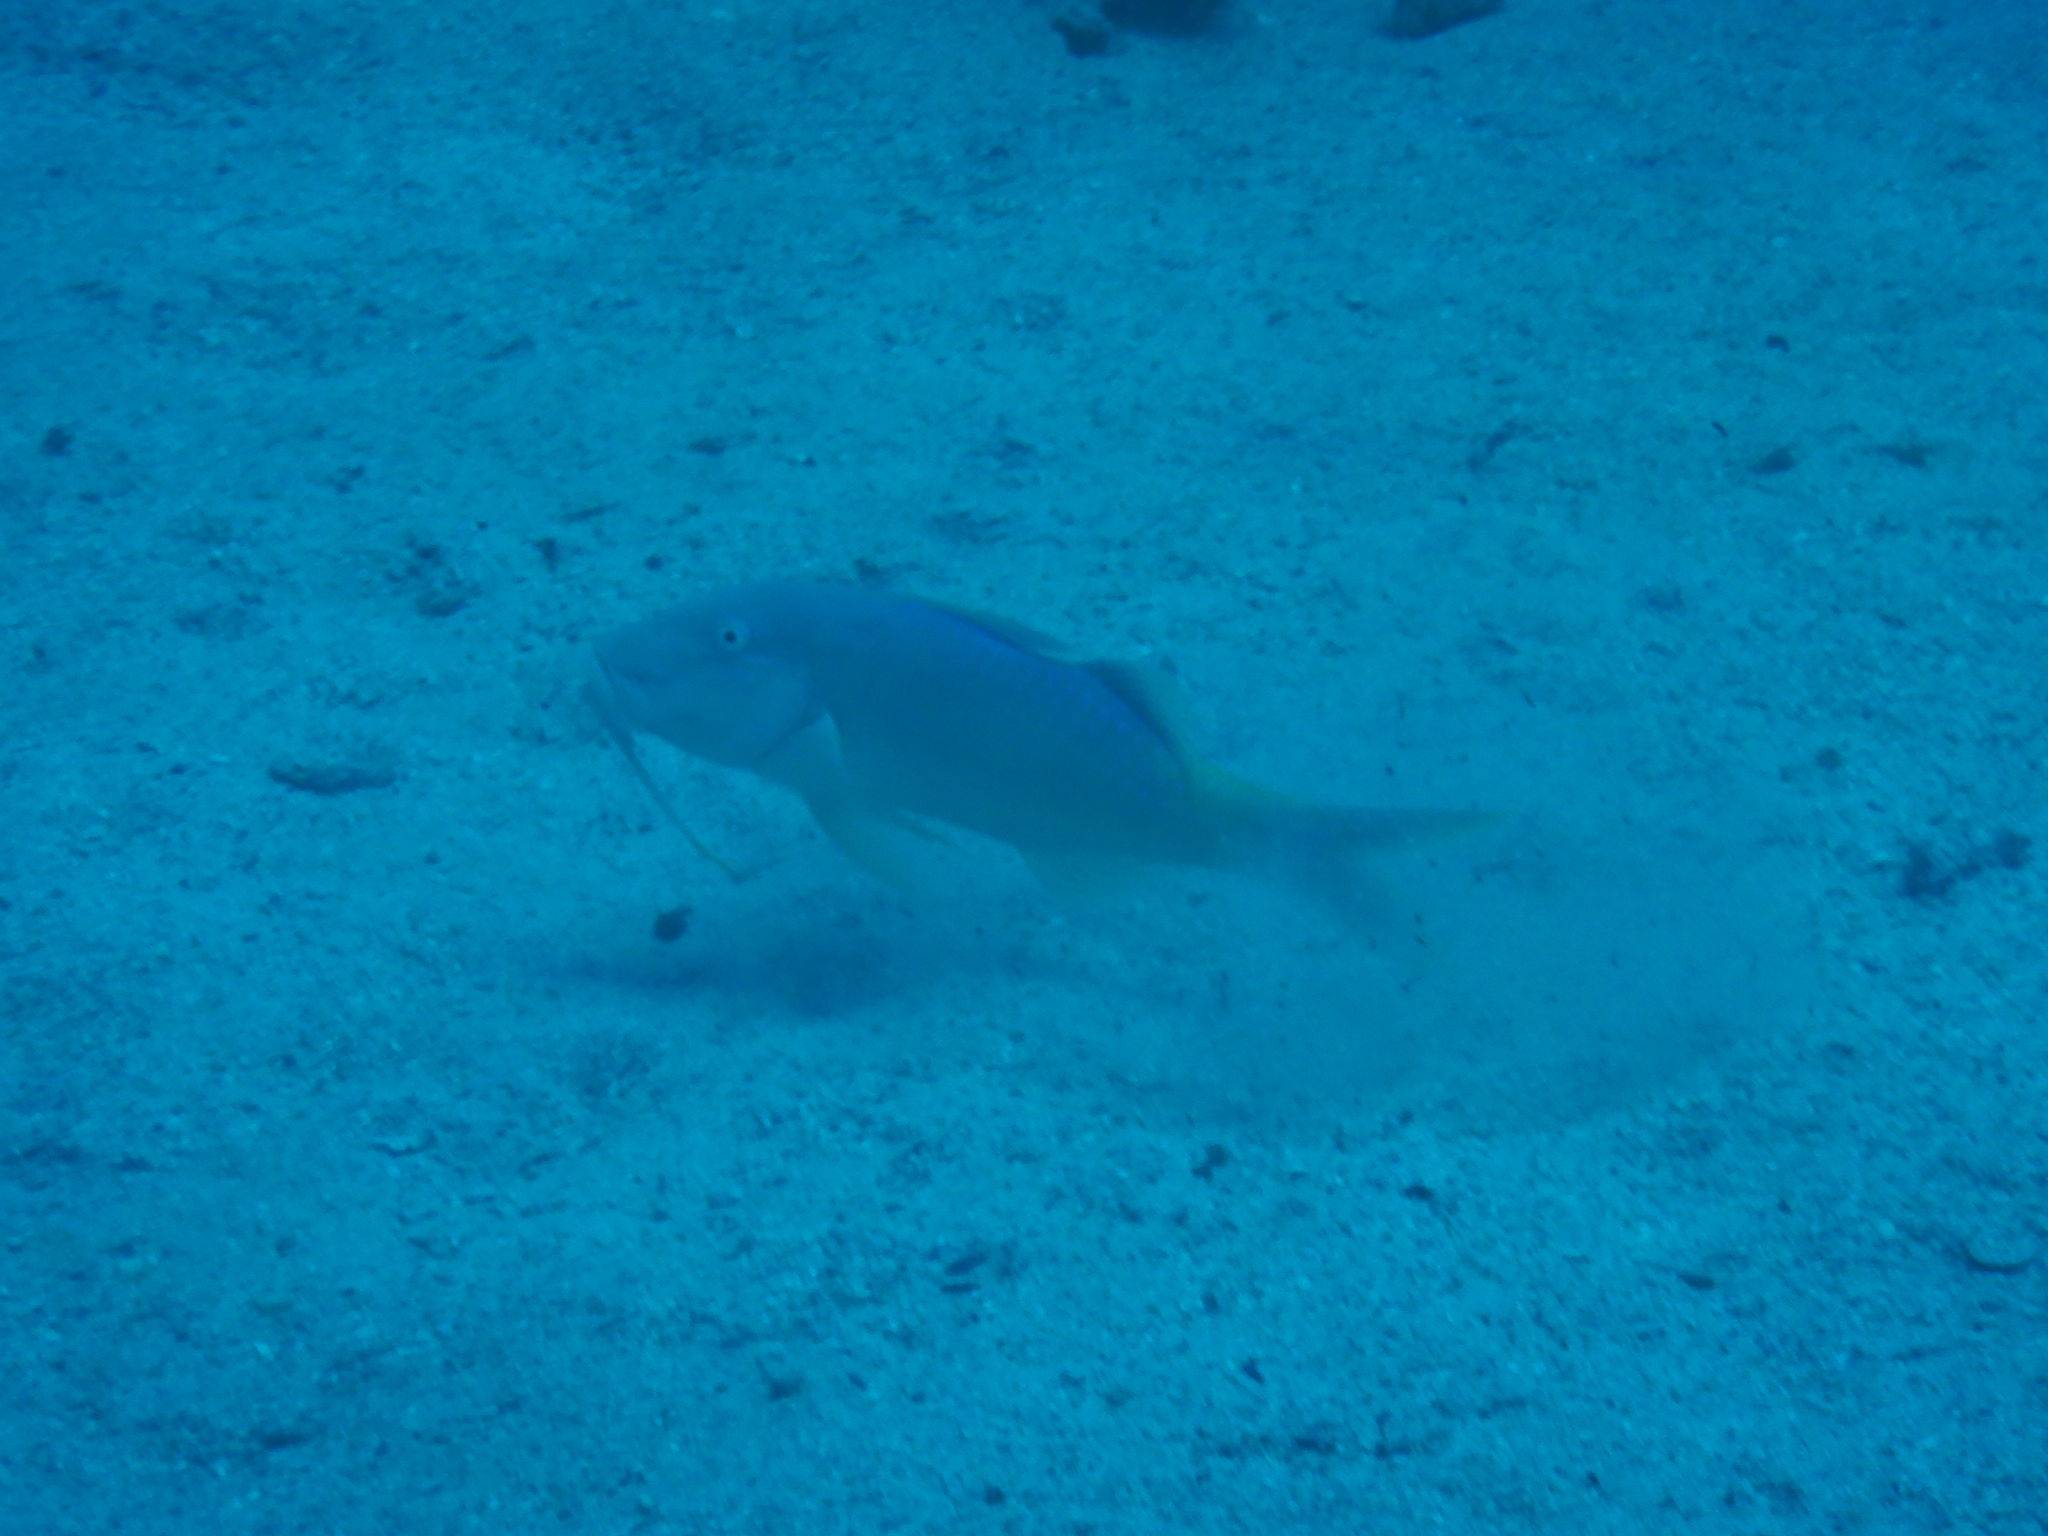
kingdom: Animalia
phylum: Chordata
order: Perciformes
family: Mullidae
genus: Parupeneus
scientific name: Parupeneus cyclostomus
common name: Goldsaddle goatfish
